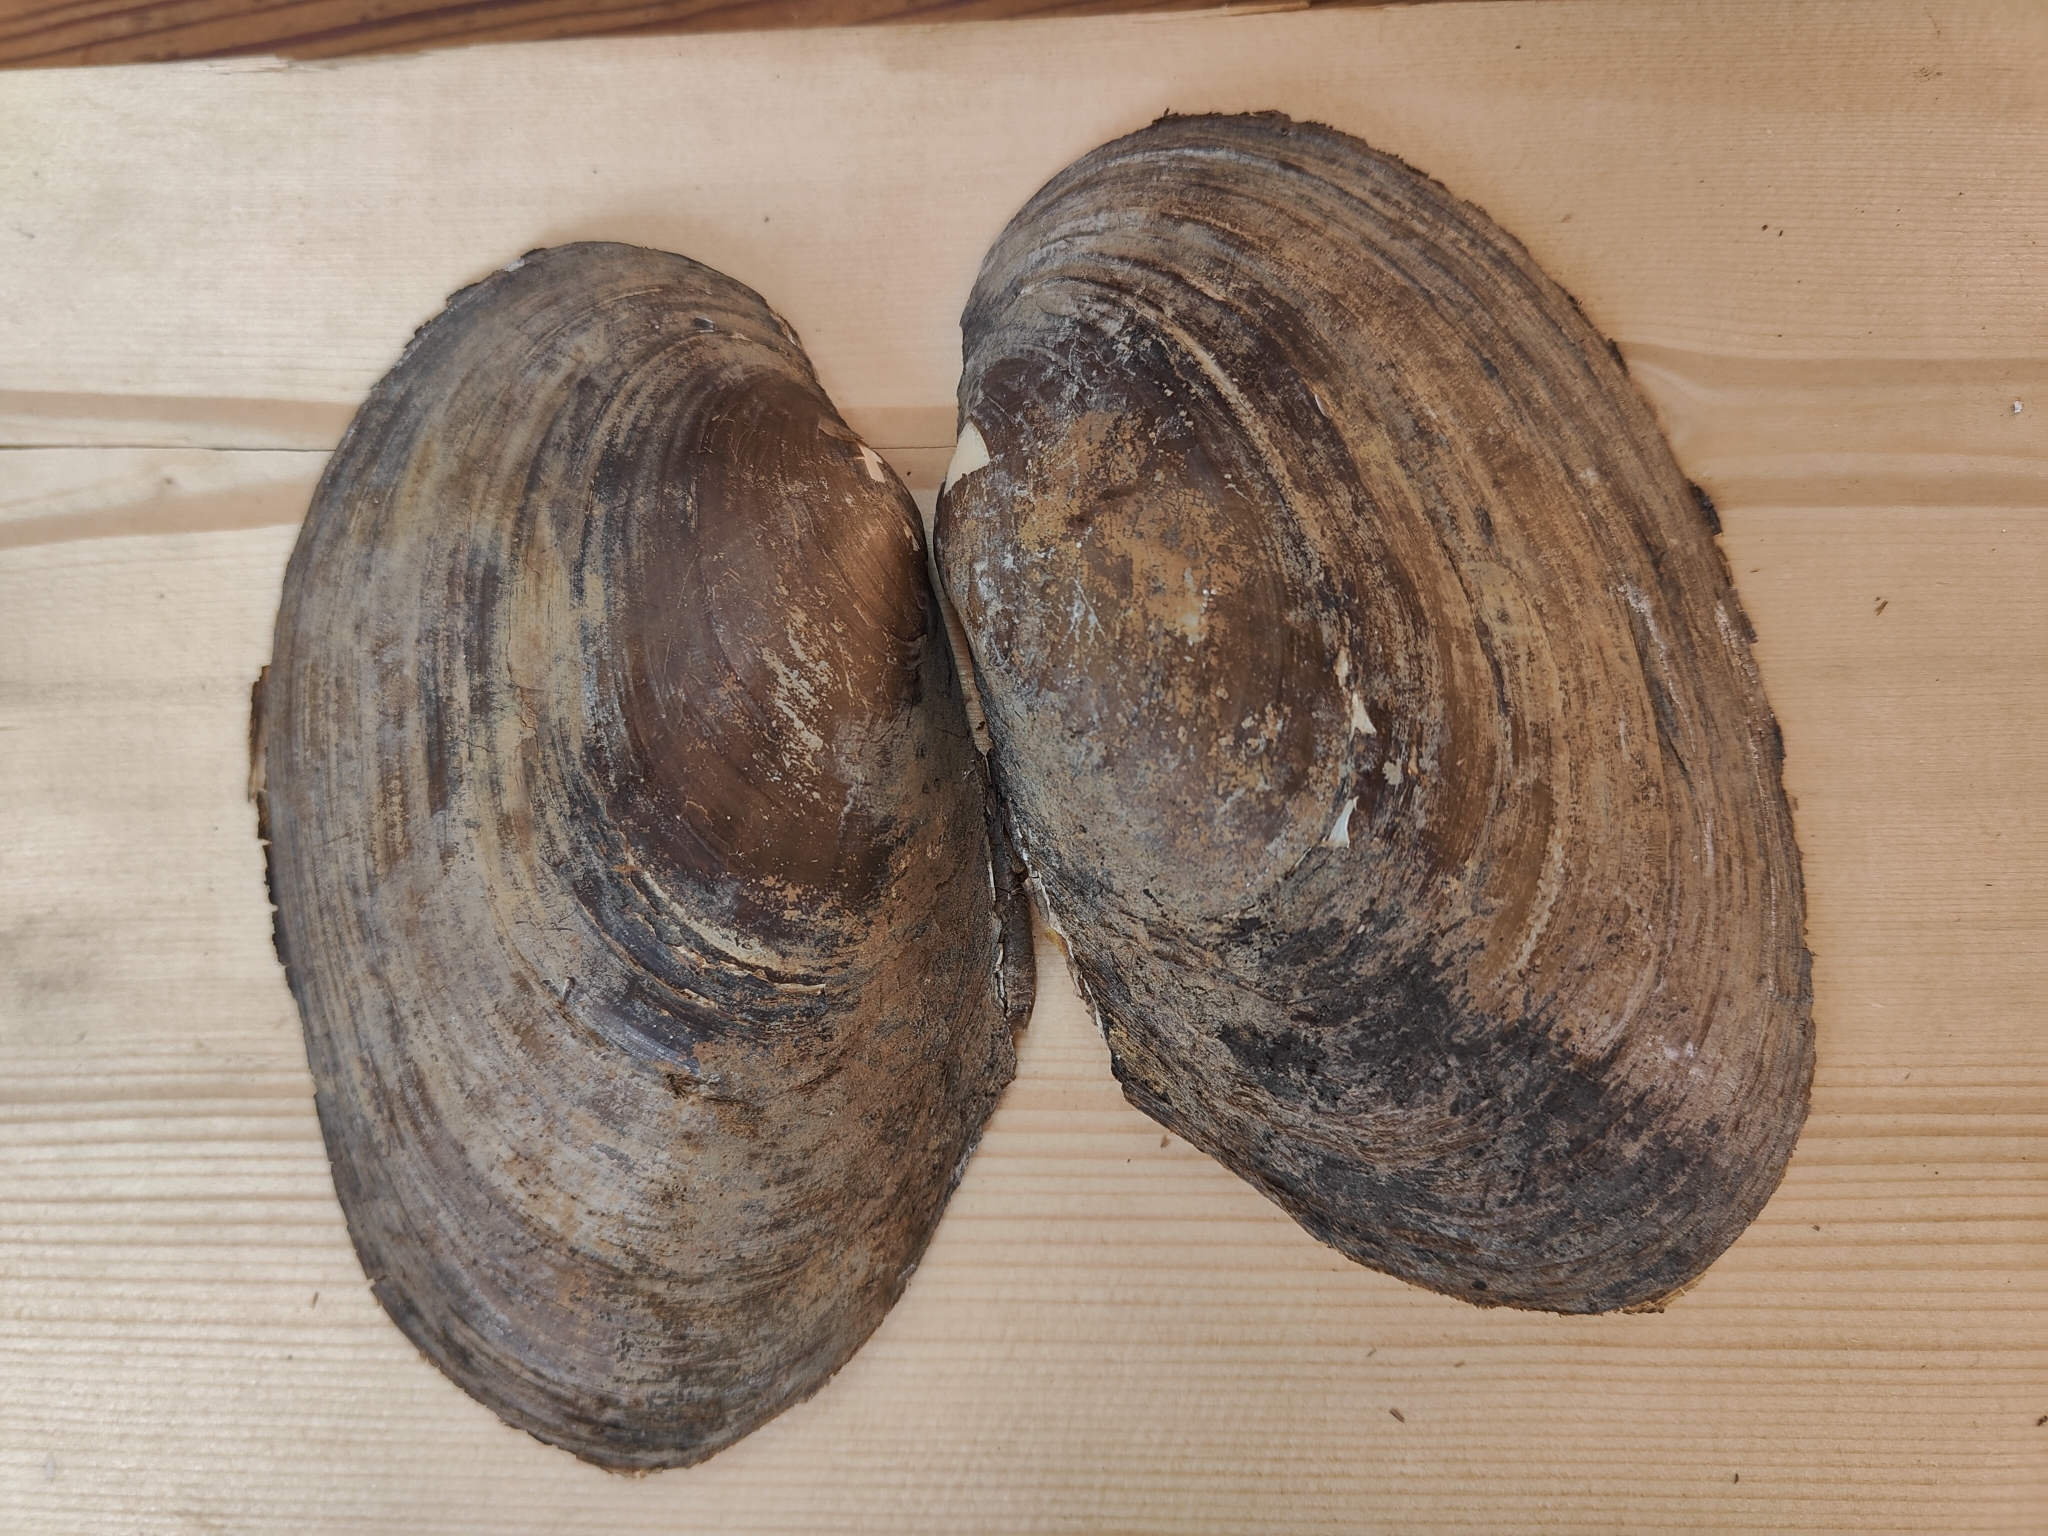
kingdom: Animalia
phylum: Mollusca
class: Bivalvia
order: Unionida
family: Unionidae
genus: Potamilus
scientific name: Potamilus fragilis
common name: Fragile papershell
